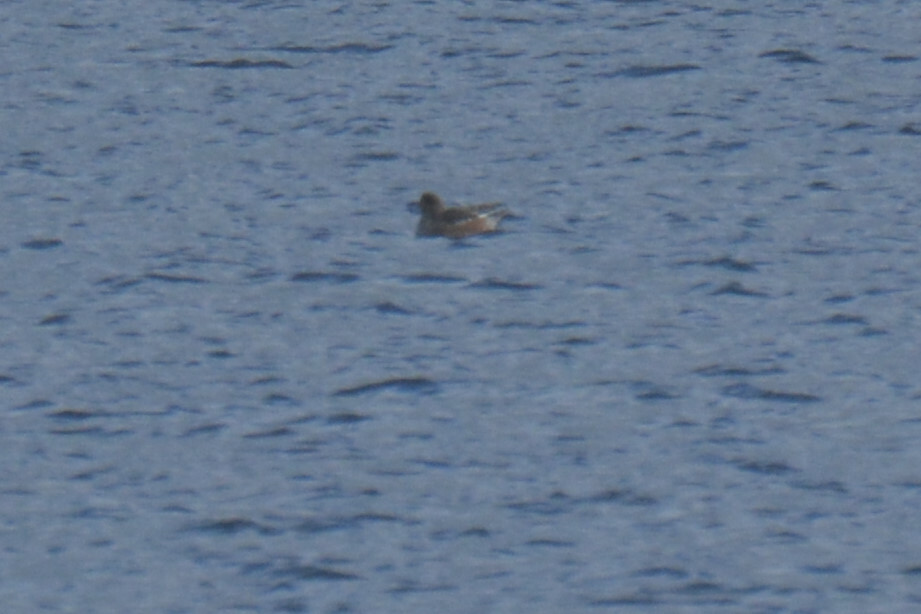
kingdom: Animalia
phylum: Chordata
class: Aves
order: Anseriformes
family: Anatidae
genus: Mareca
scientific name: Mareca penelope
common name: Eurasian wigeon
